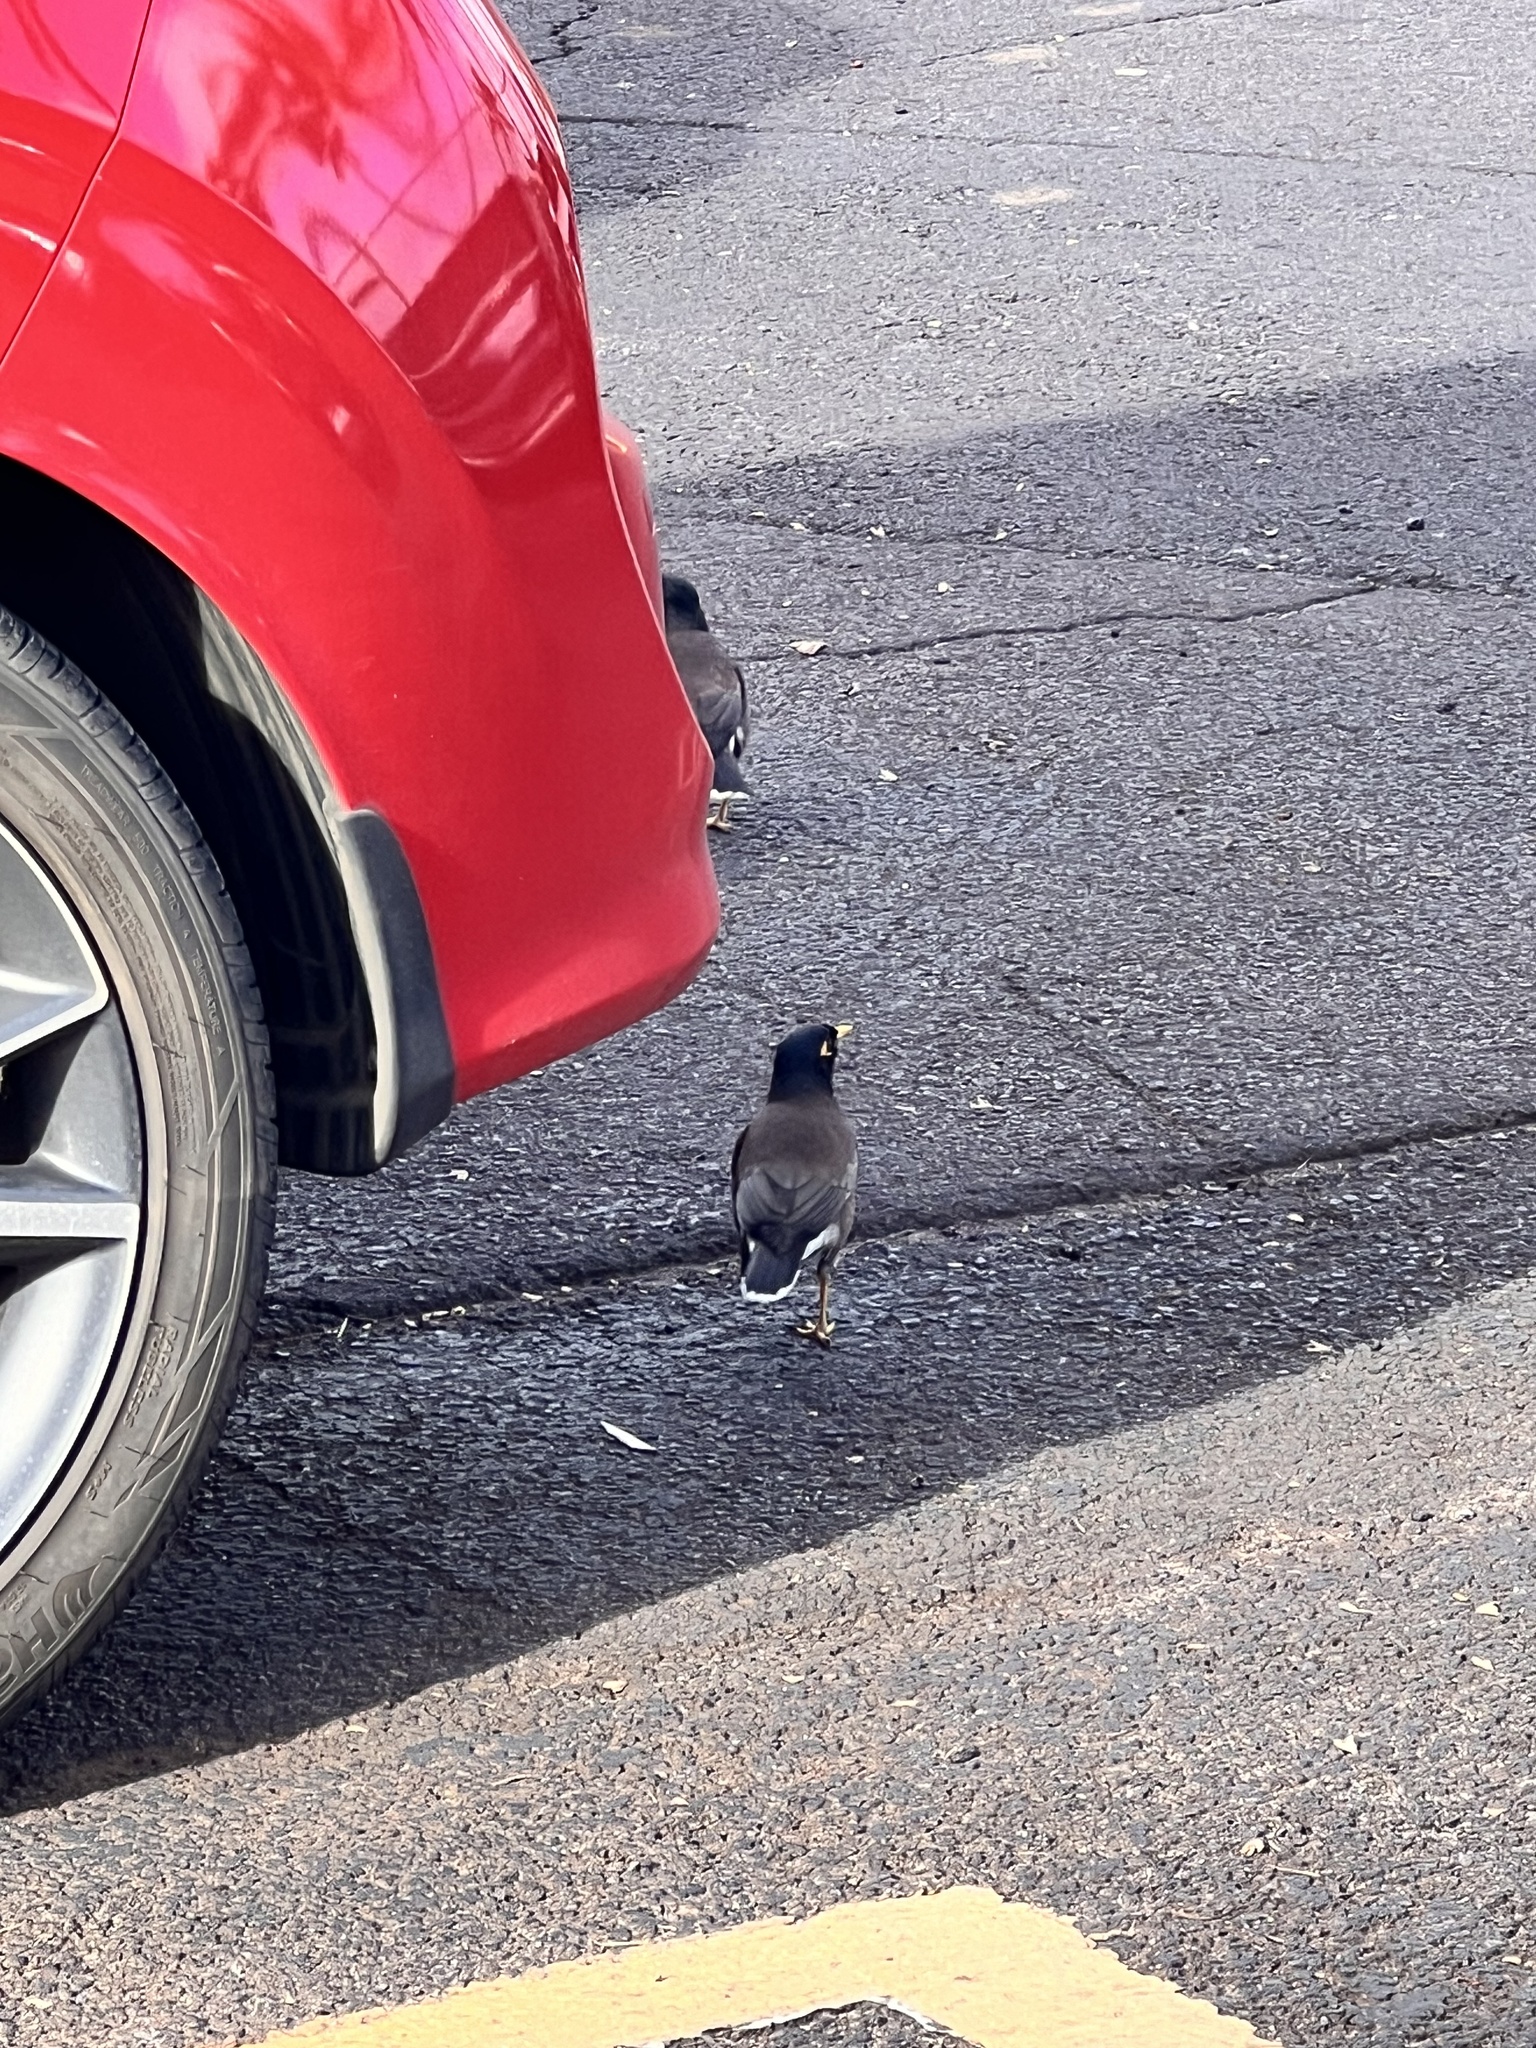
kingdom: Animalia
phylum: Chordata
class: Aves
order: Passeriformes
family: Sturnidae
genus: Acridotheres
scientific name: Acridotheres tristis
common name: Common myna
